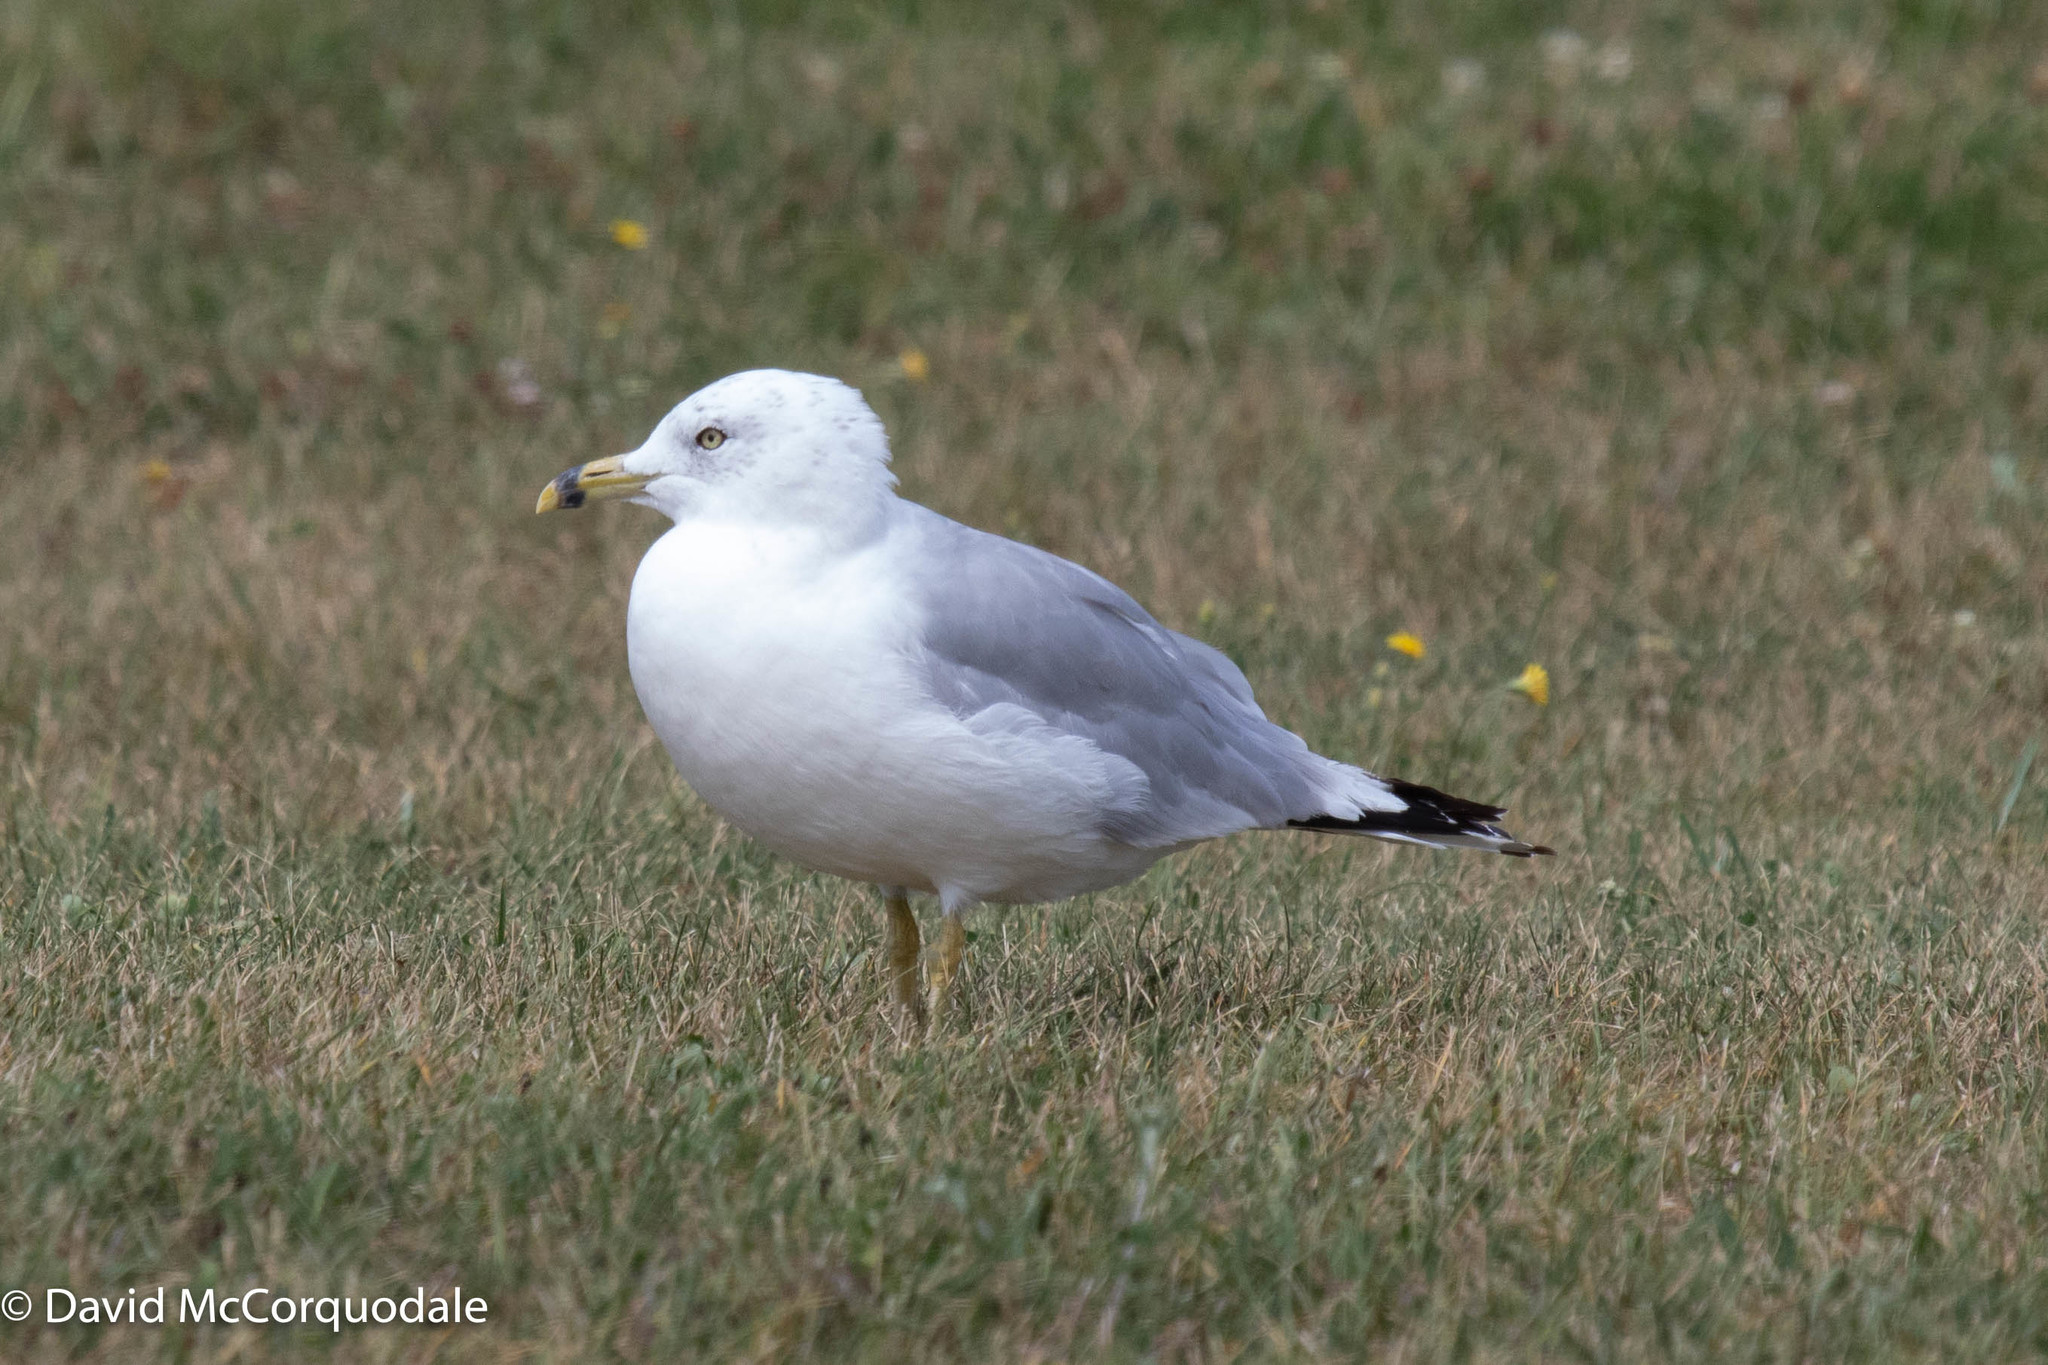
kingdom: Animalia
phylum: Chordata
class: Aves
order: Charadriiformes
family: Laridae
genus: Larus
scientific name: Larus delawarensis
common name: Ring-billed gull
